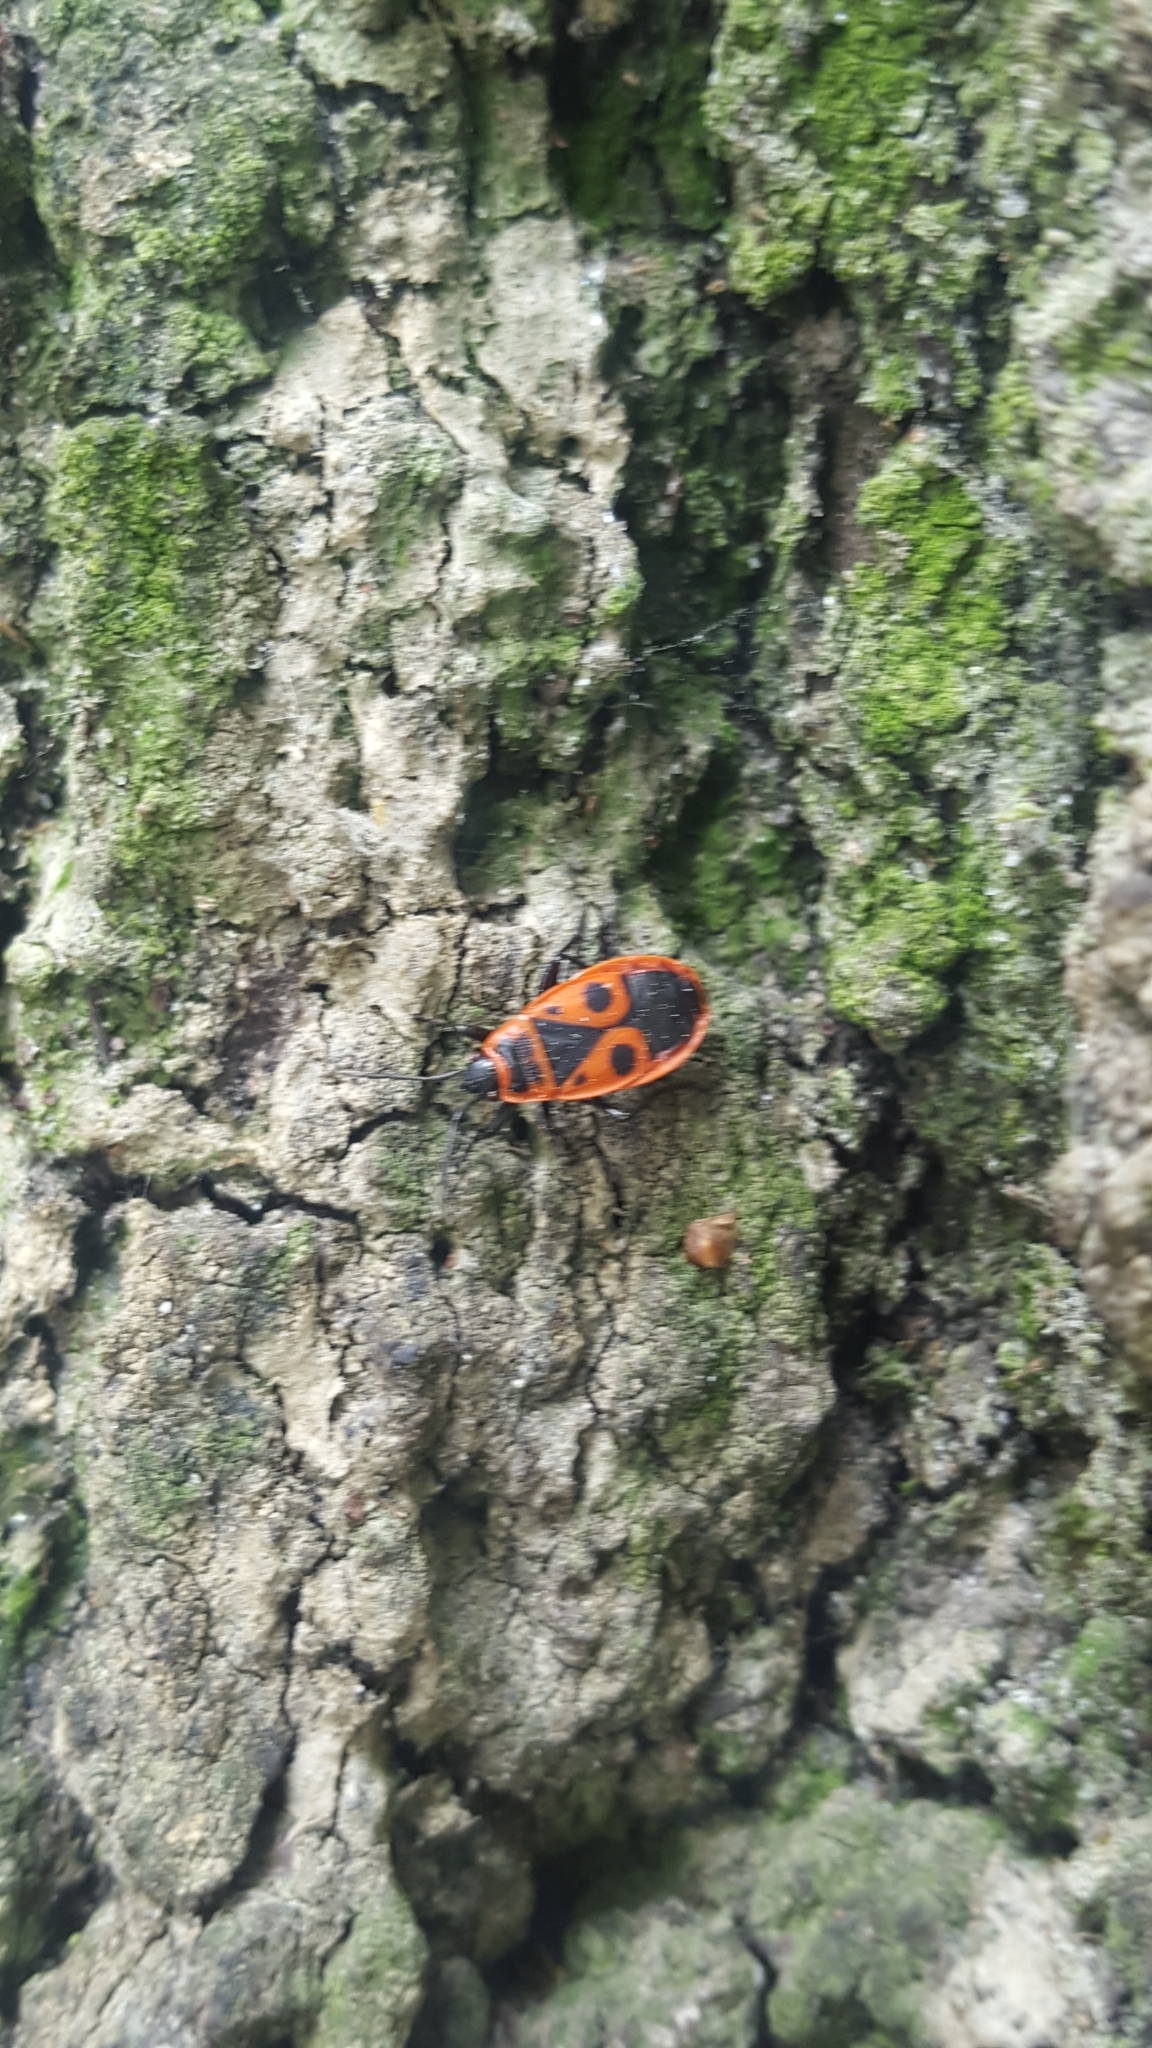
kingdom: Animalia
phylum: Arthropoda
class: Insecta
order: Hemiptera
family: Pyrrhocoridae
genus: Pyrrhocoris
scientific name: Pyrrhocoris apterus
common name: Firebug
